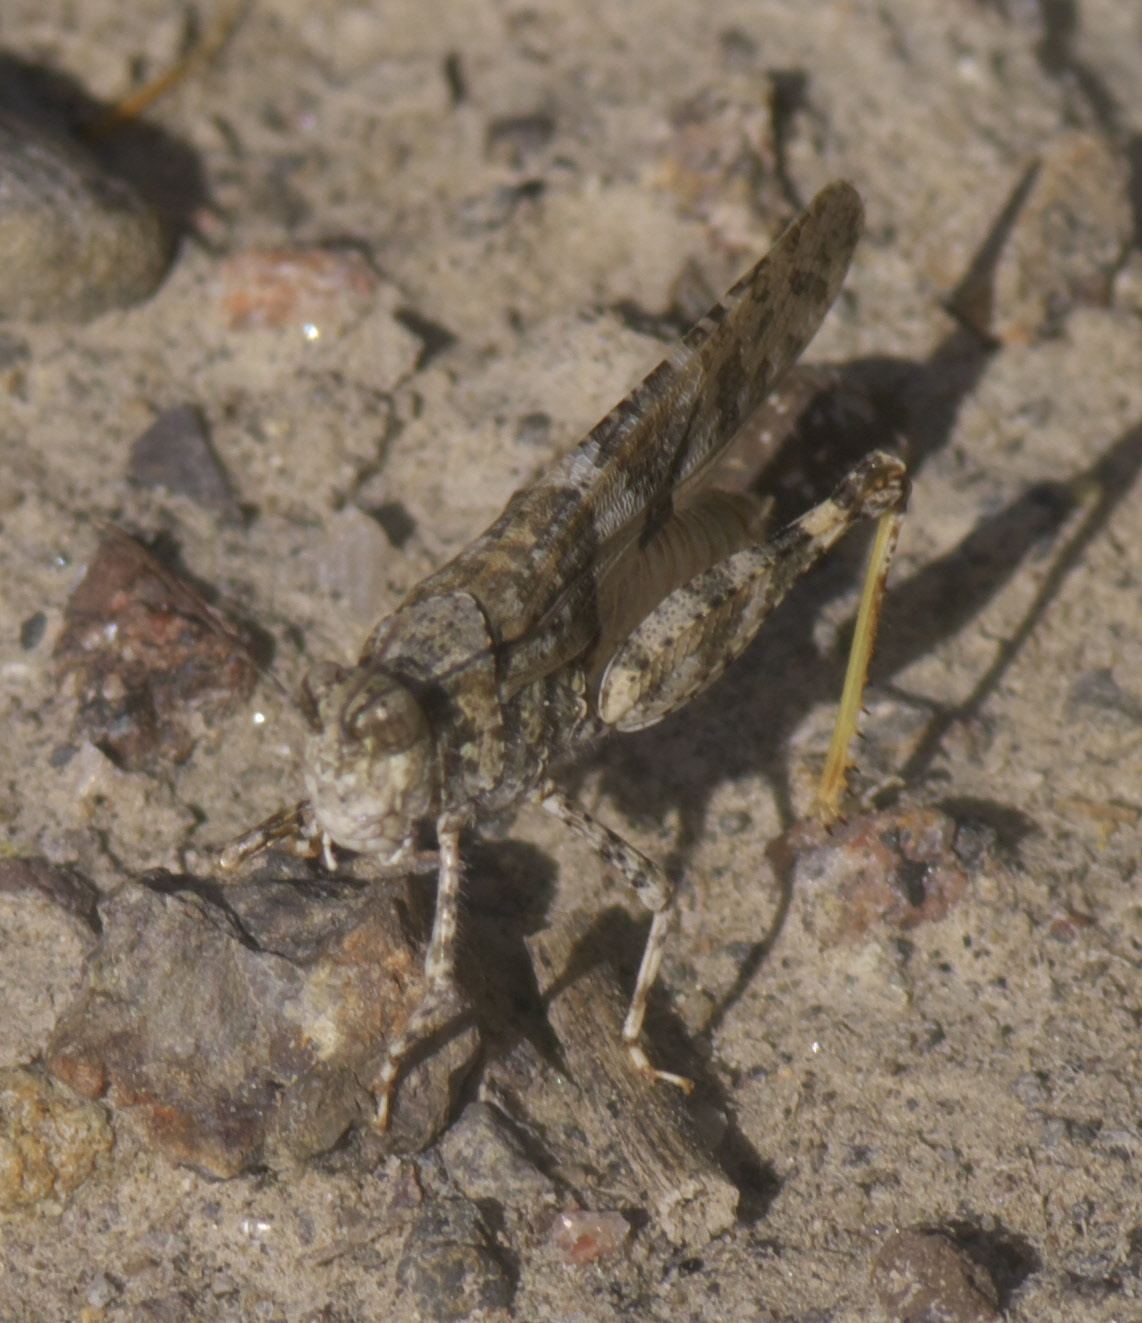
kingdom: Animalia
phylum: Arthropoda
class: Insecta
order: Orthoptera
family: Acrididae
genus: Trimerotropis
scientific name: Trimerotropis pallidipennis
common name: Pallid-winged grasshopper
